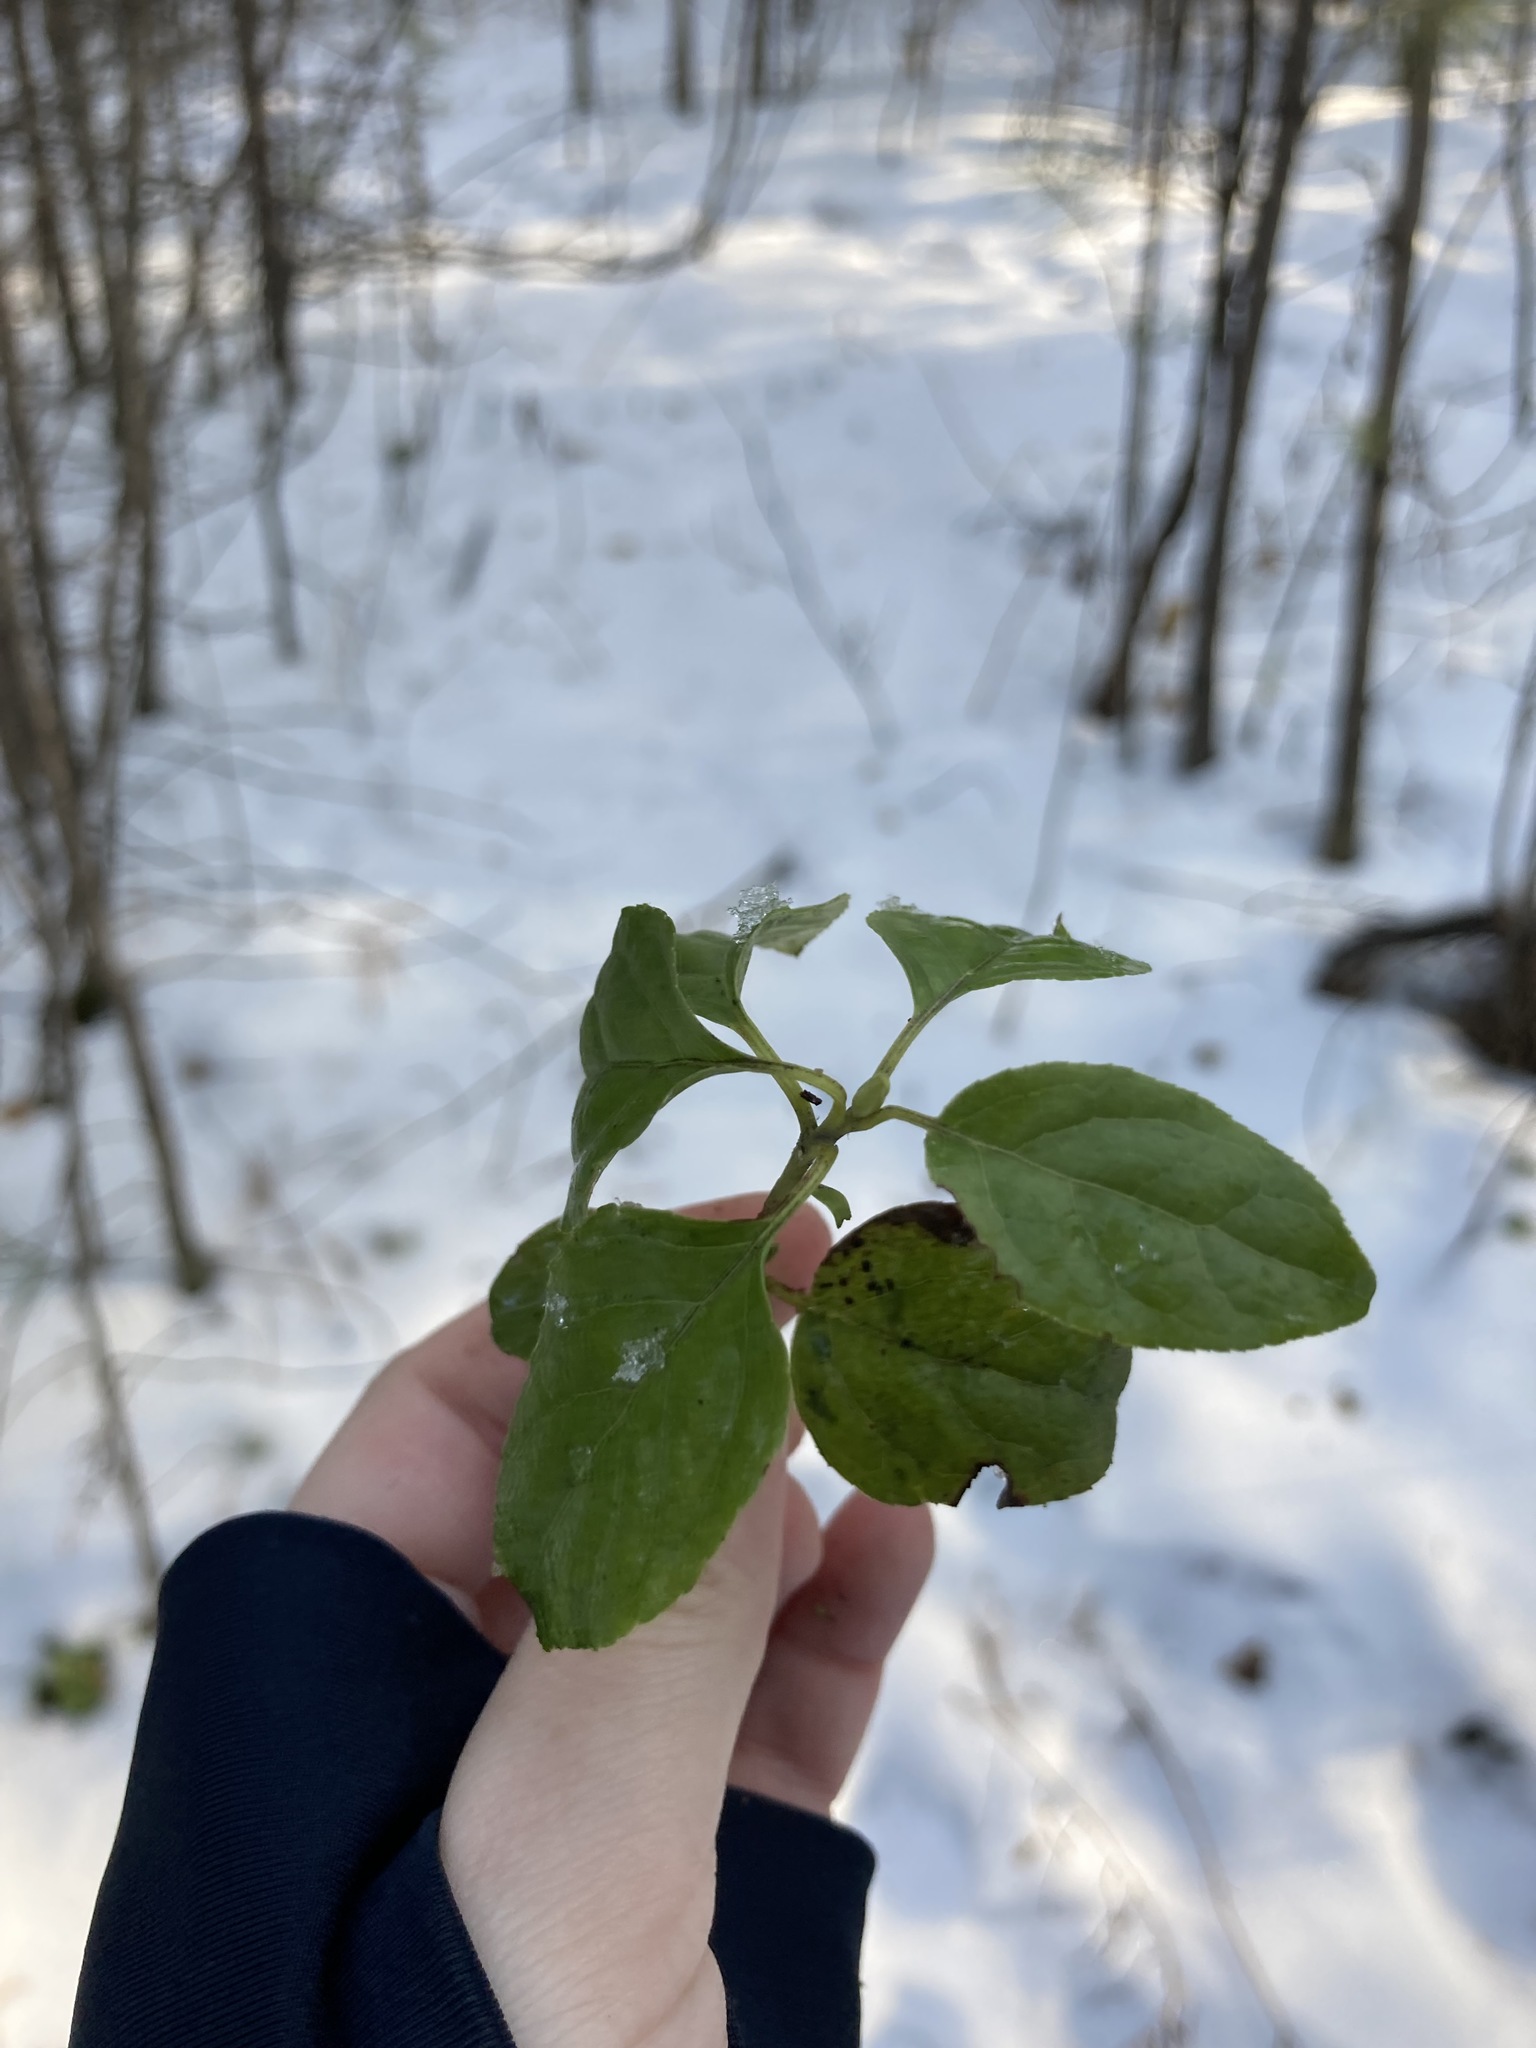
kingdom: Plantae
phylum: Tracheophyta
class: Magnoliopsida
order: Ericales
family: Ericaceae
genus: Orthilia
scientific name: Orthilia secunda
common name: One-sided orthilia
